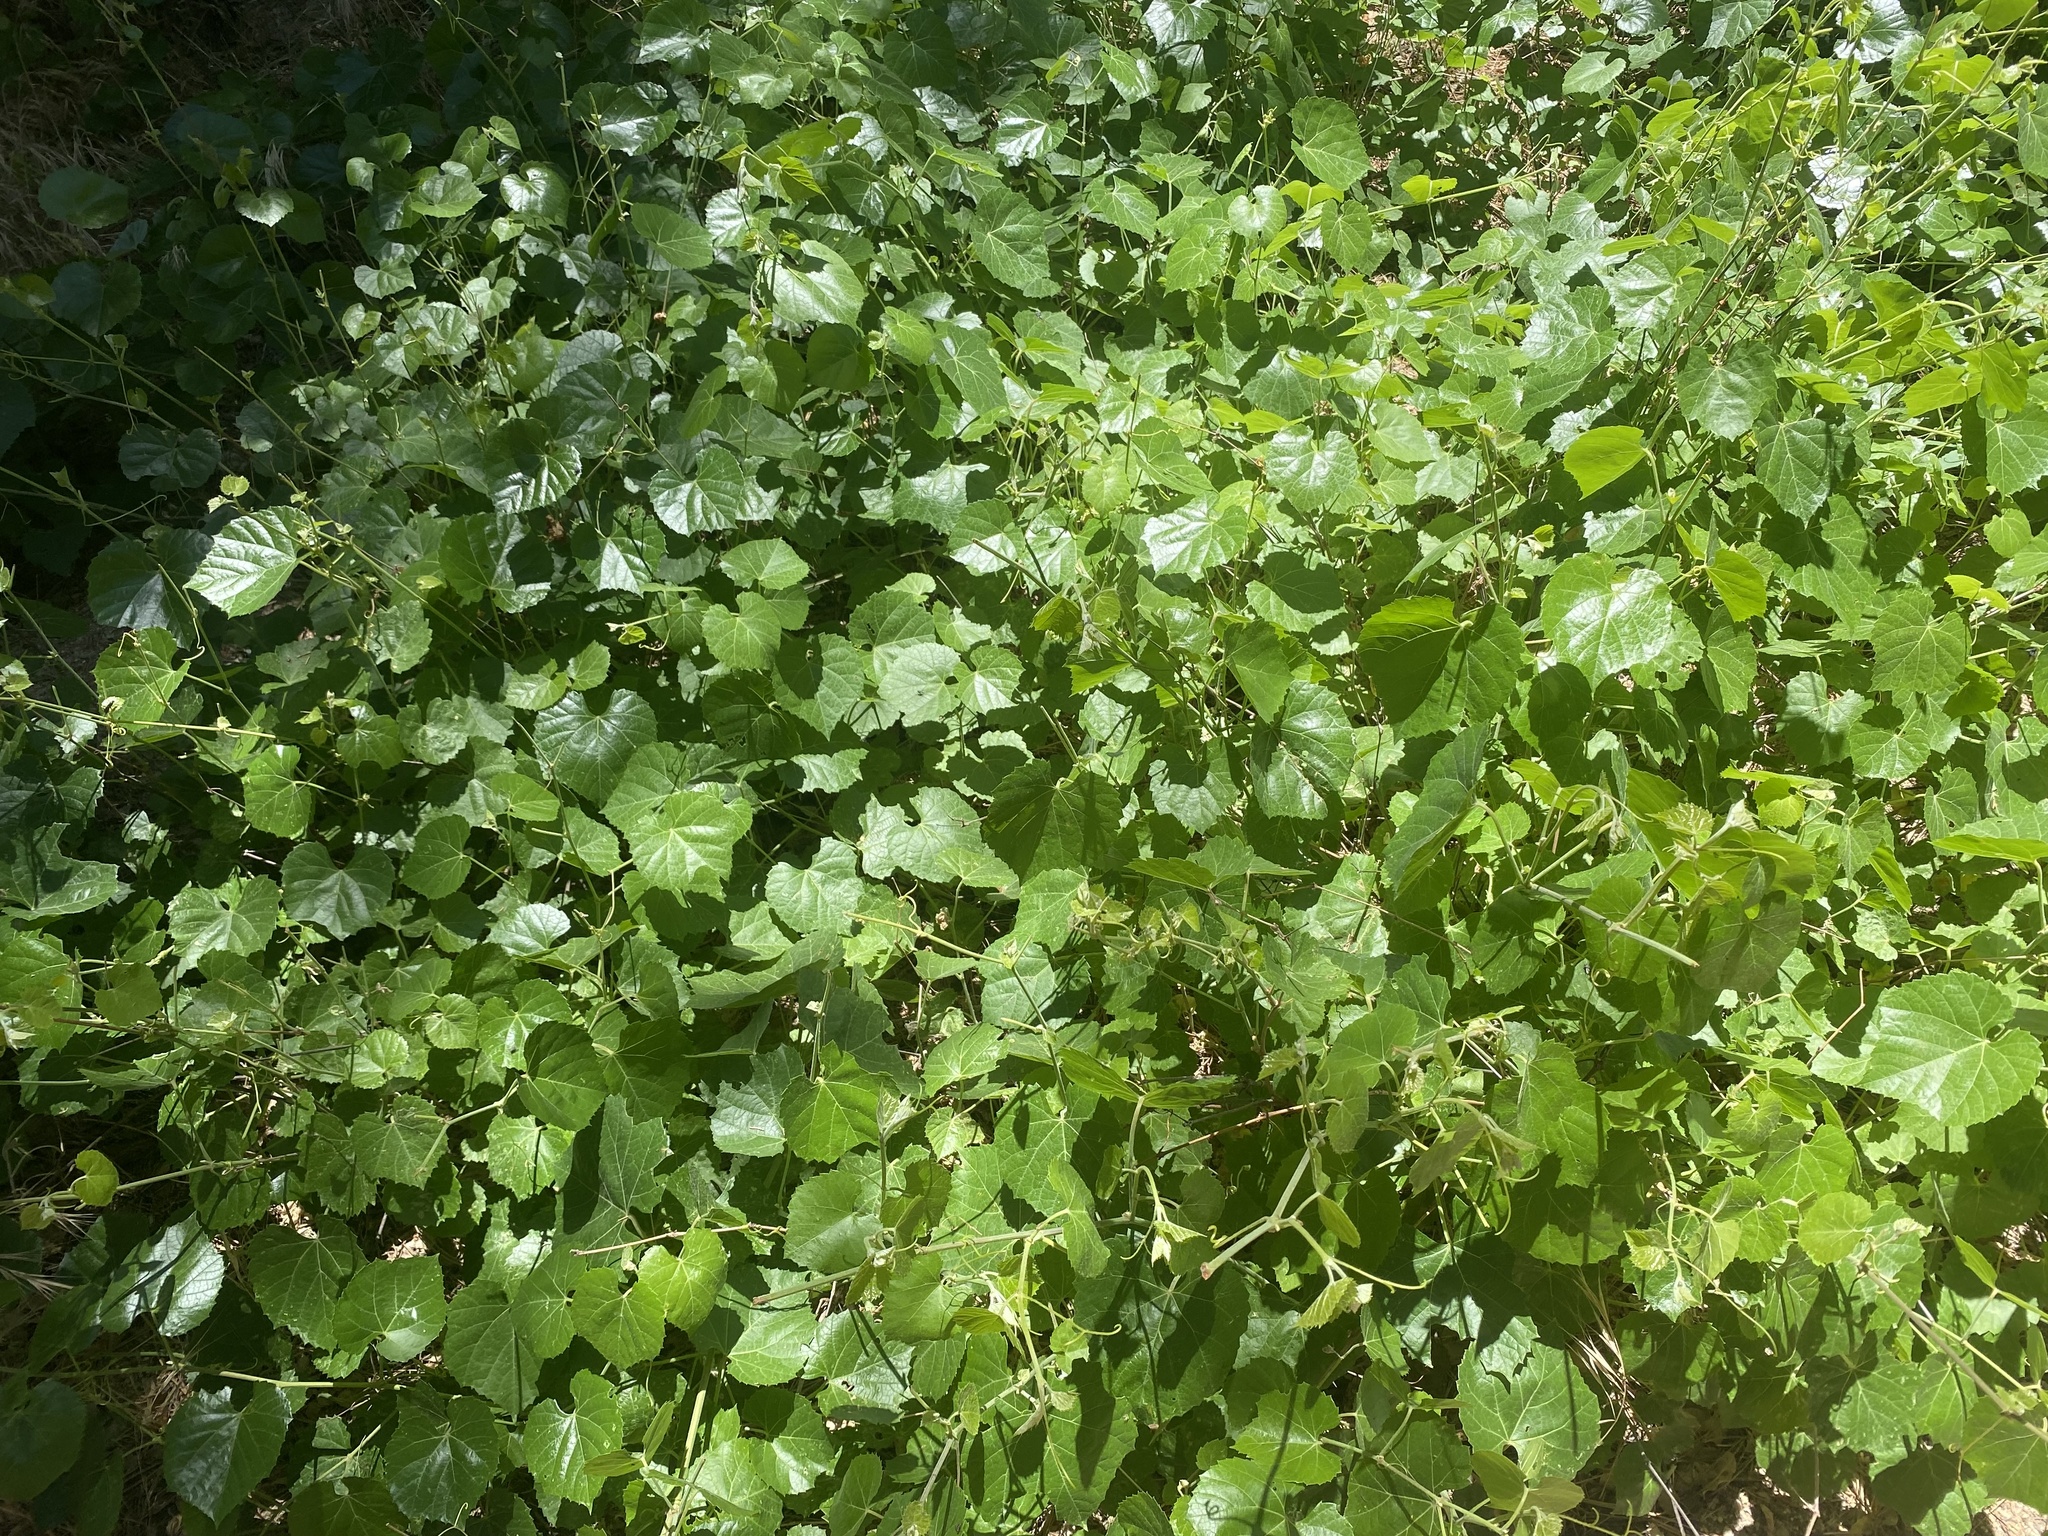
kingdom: Plantae
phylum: Tracheophyta
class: Magnoliopsida
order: Vitales
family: Vitaceae
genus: Vitis
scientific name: Vitis arizonica
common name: Canyon grape
